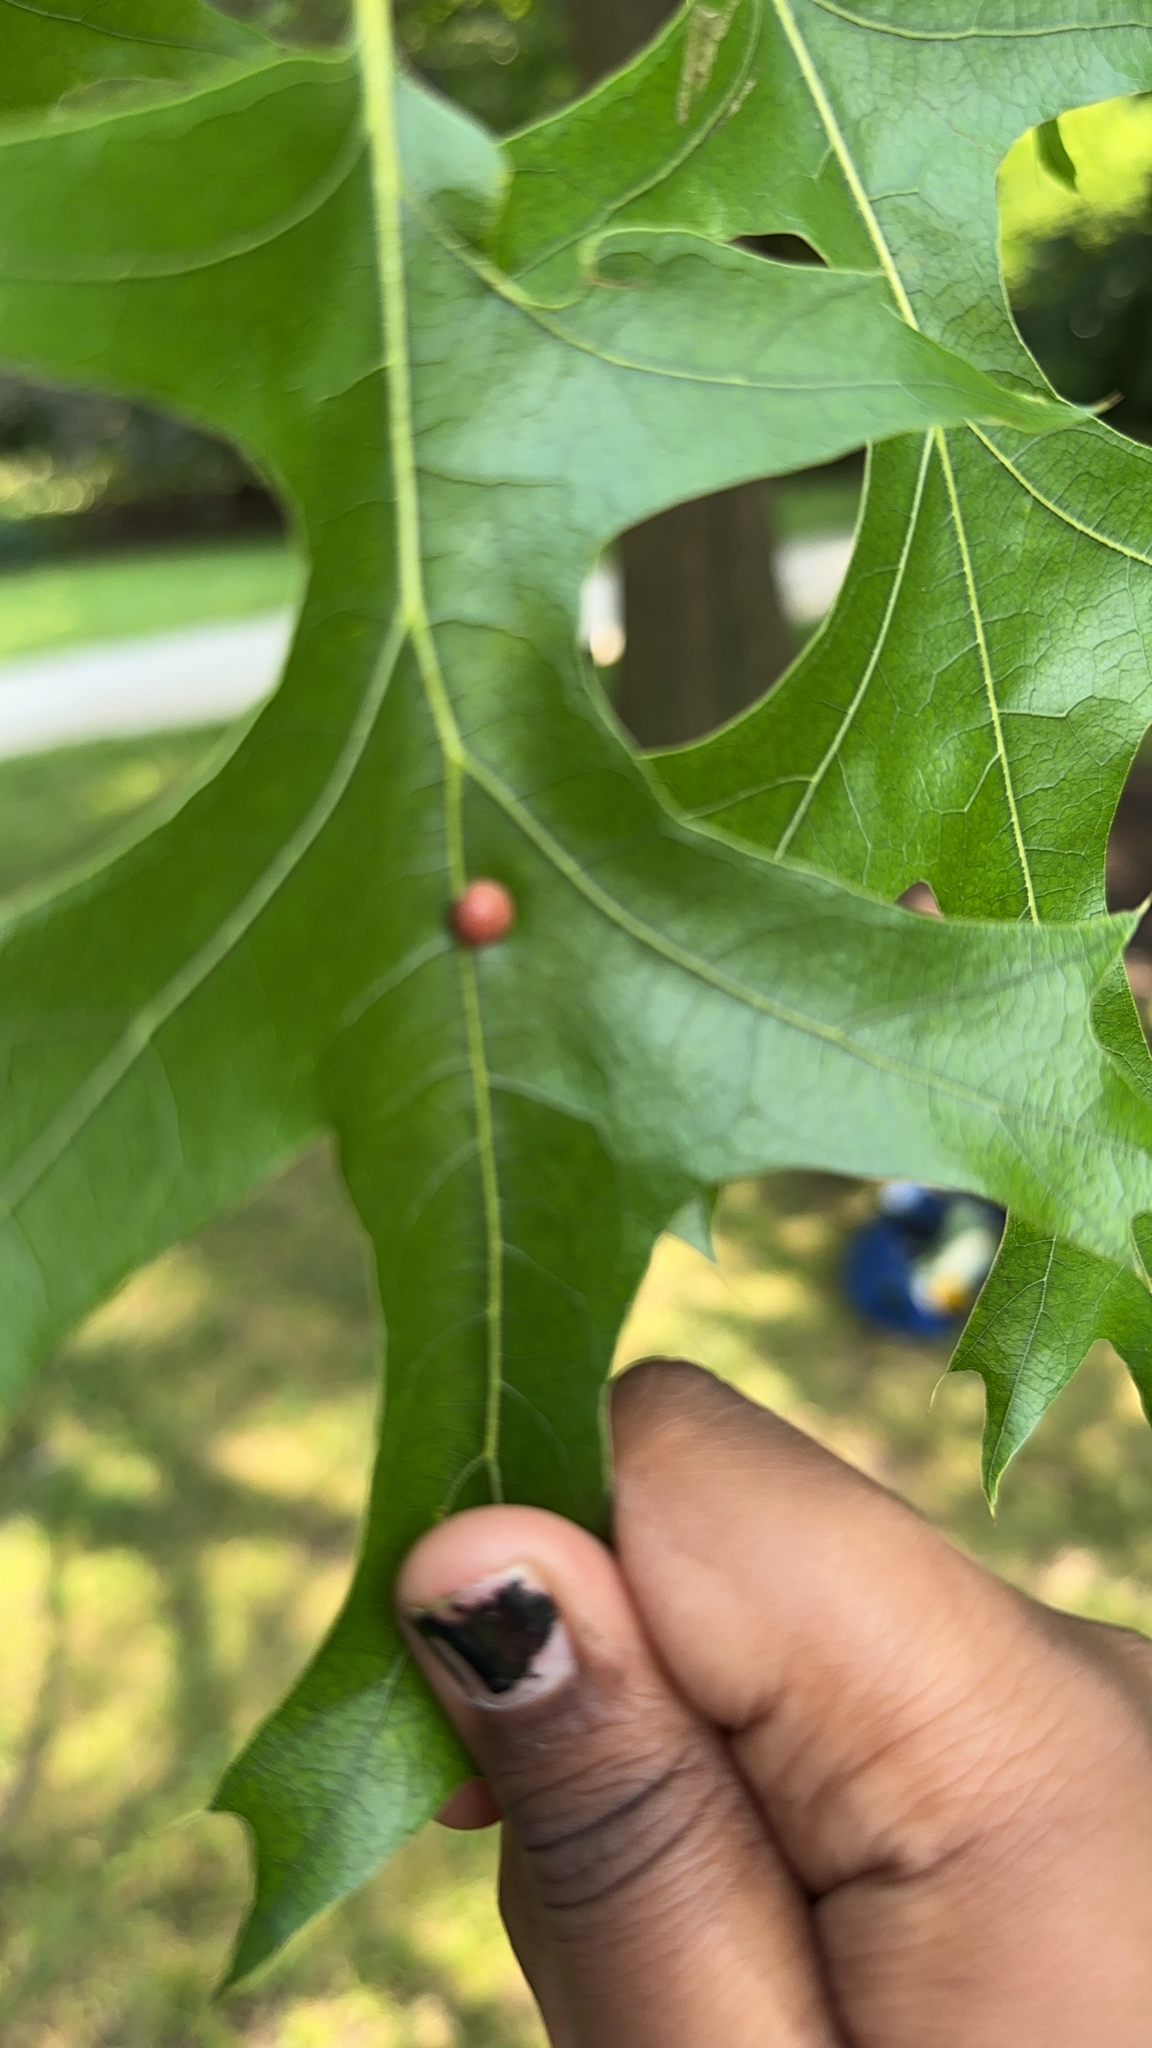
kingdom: Animalia
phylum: Arthropoda
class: Insecta
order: Diptera
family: Cecidomyiidae
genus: Polystepha
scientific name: Polystepha pilulae
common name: Oak leaf gall midge
